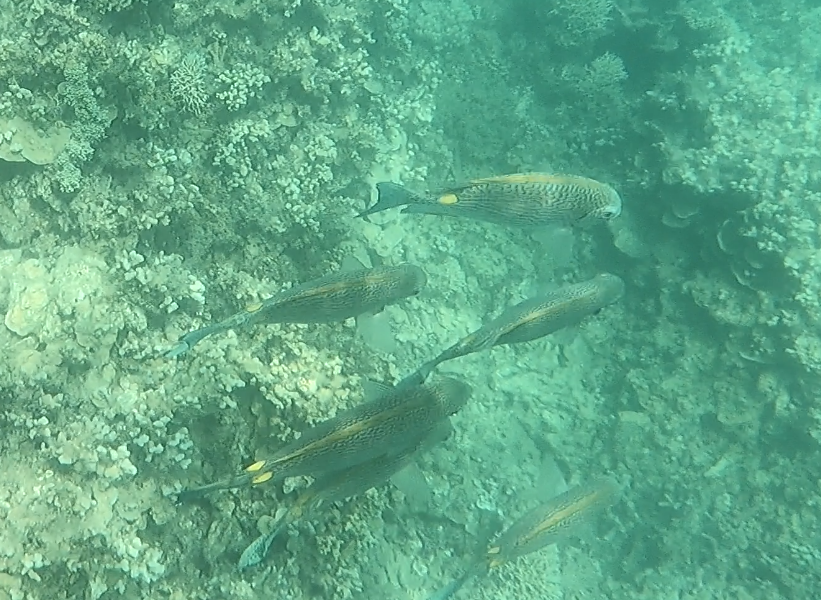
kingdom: Animalia
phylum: Chordata
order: Perciformes
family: Siganidae
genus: Siganus
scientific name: Siganus lineatus
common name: Lined rabbitfish
